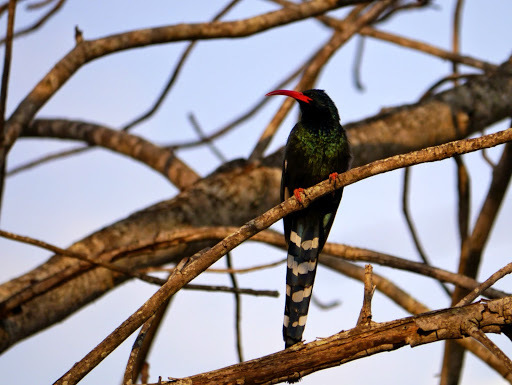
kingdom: Animalia
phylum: Chordata
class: Aves
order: Bucerotiformes
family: Phoeniculidae
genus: Phoeniculus
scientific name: Phoeniculus purpureus
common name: Green woodhoopoe
